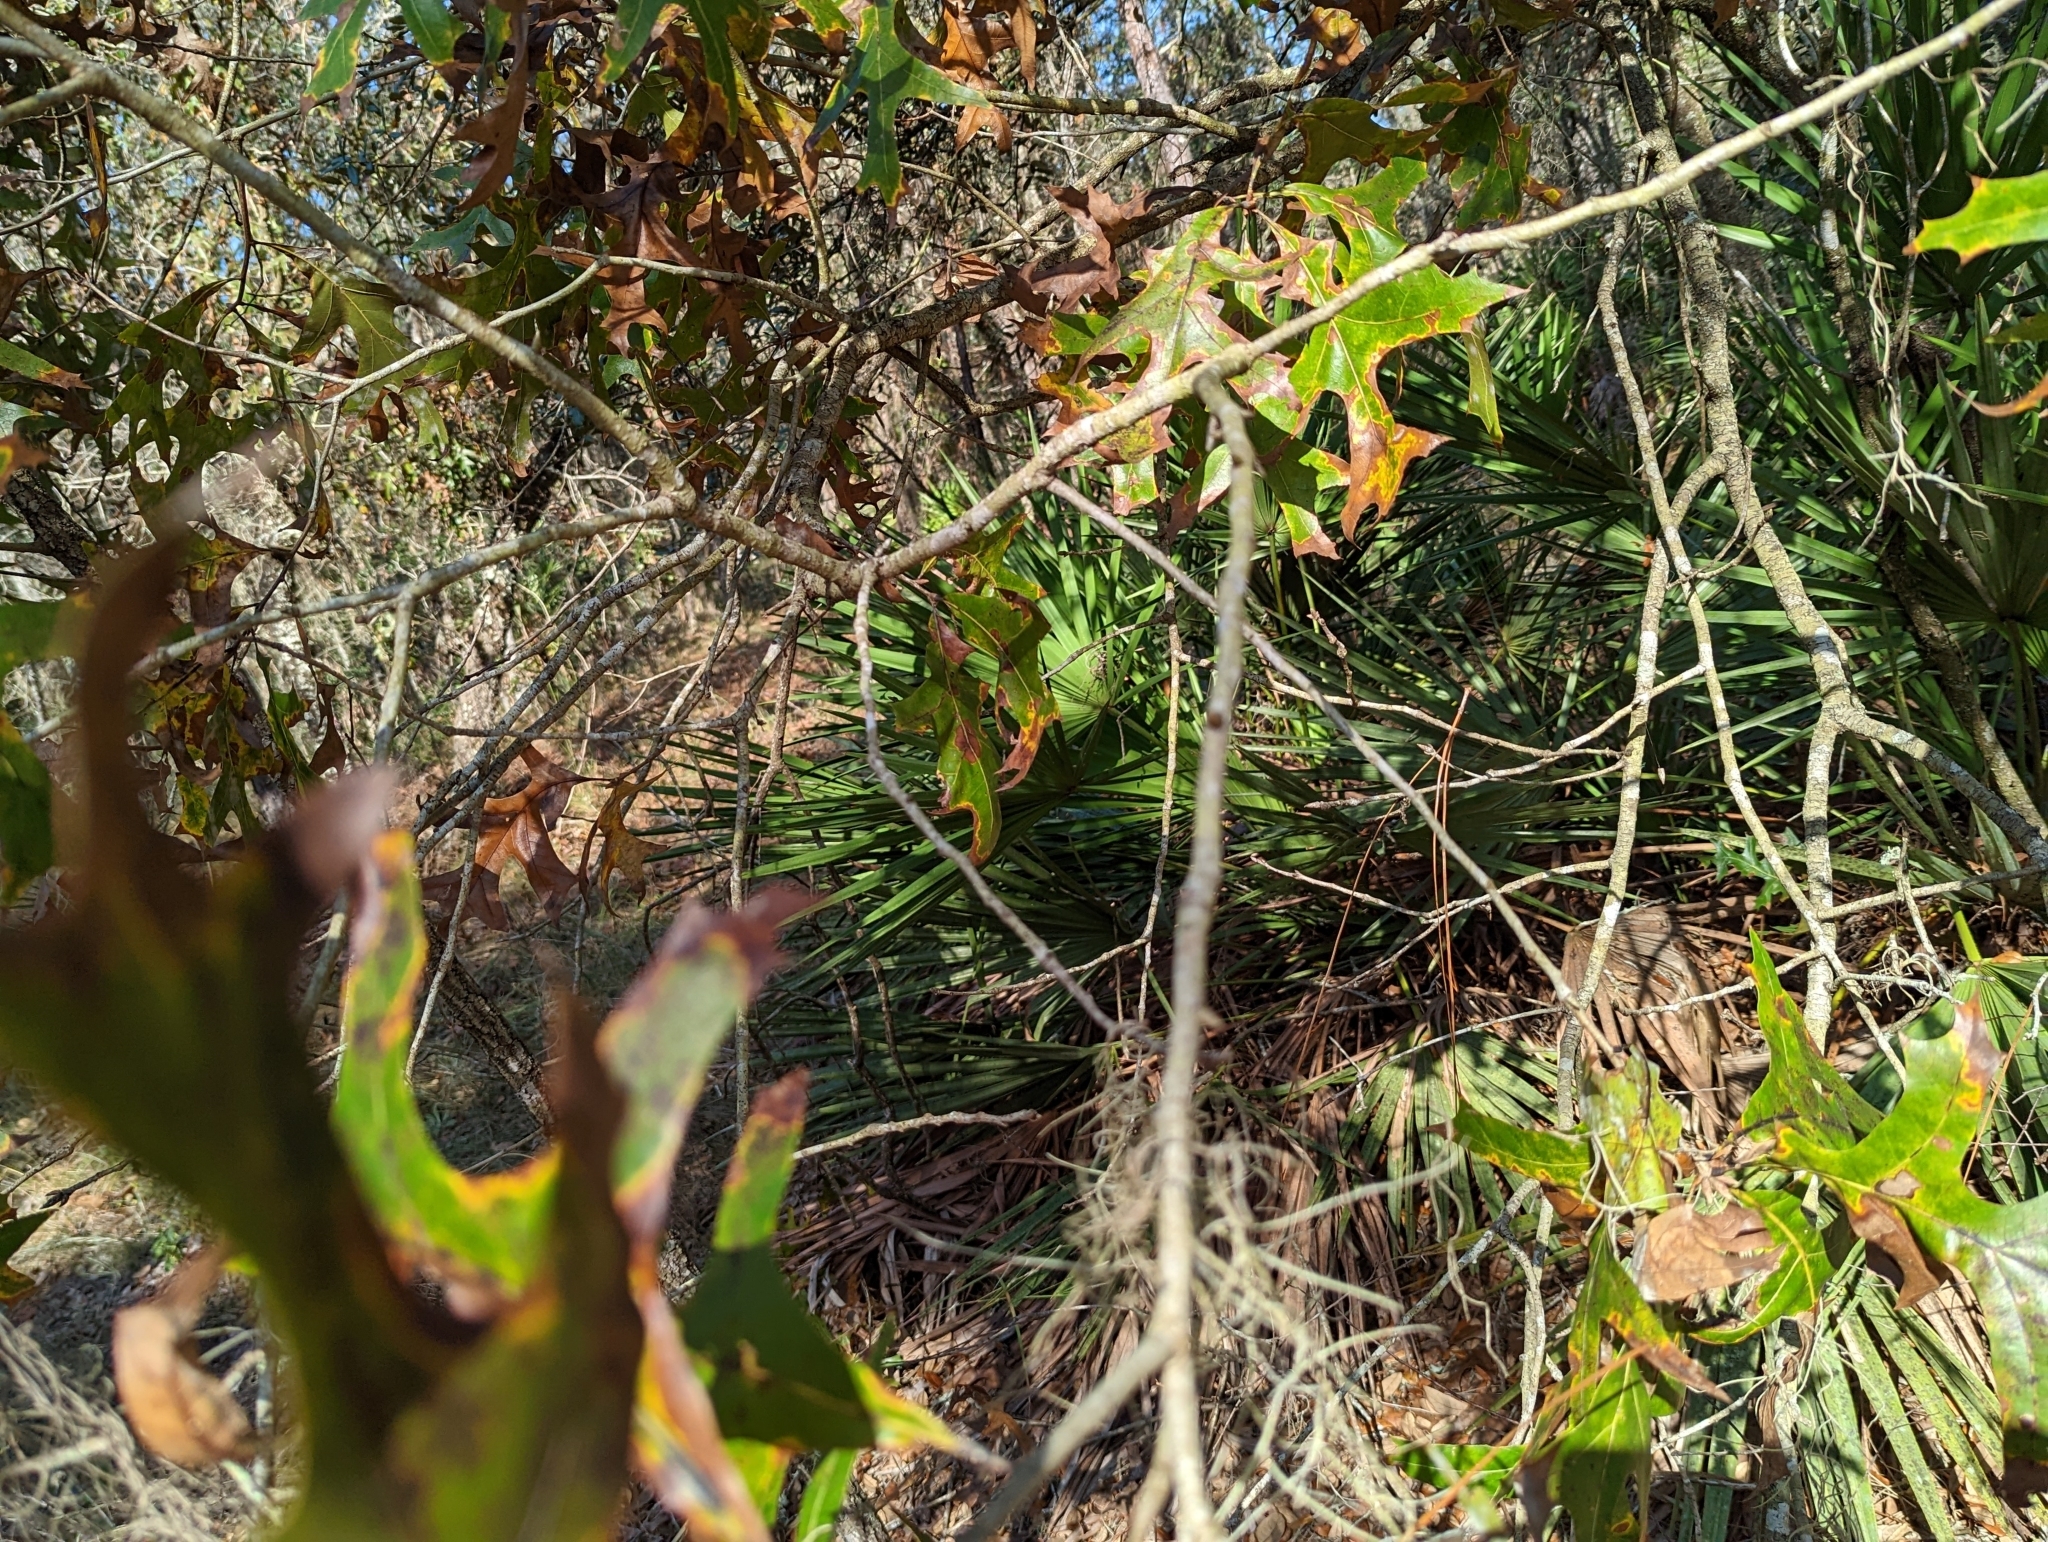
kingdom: Plantae
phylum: Tracheophyta
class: Magnoliopsida
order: Fagales
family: Fagaceae
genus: Quercus
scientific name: Quercus laevis
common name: Turkey oak
